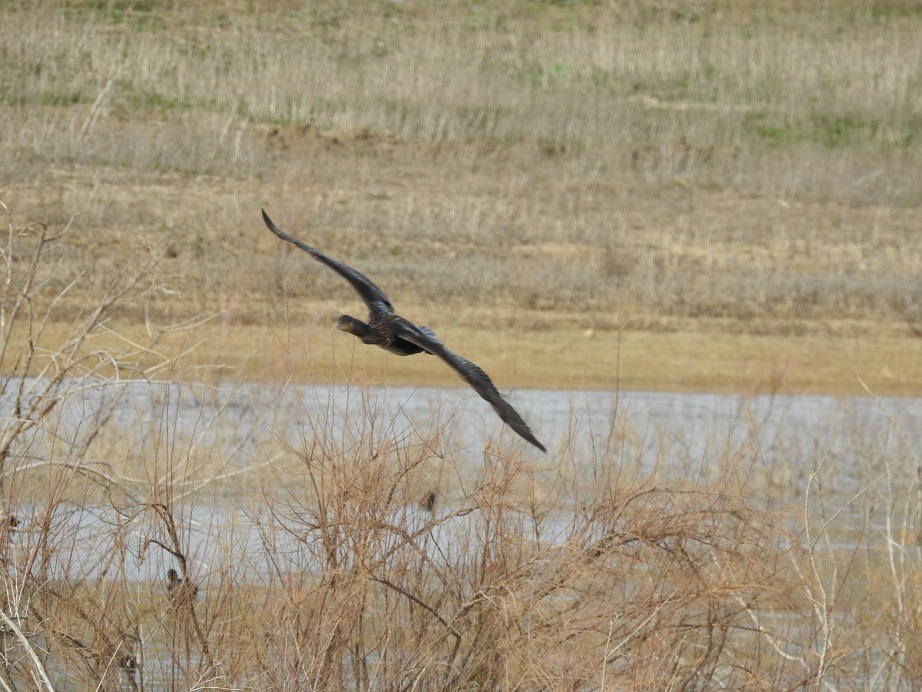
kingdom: Animalia
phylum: Chordata
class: Aves
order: Suliformes
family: Phalacrocoracidae
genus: Phalacrocorax
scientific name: Phalacrocorax carbo
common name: Great cormorant
